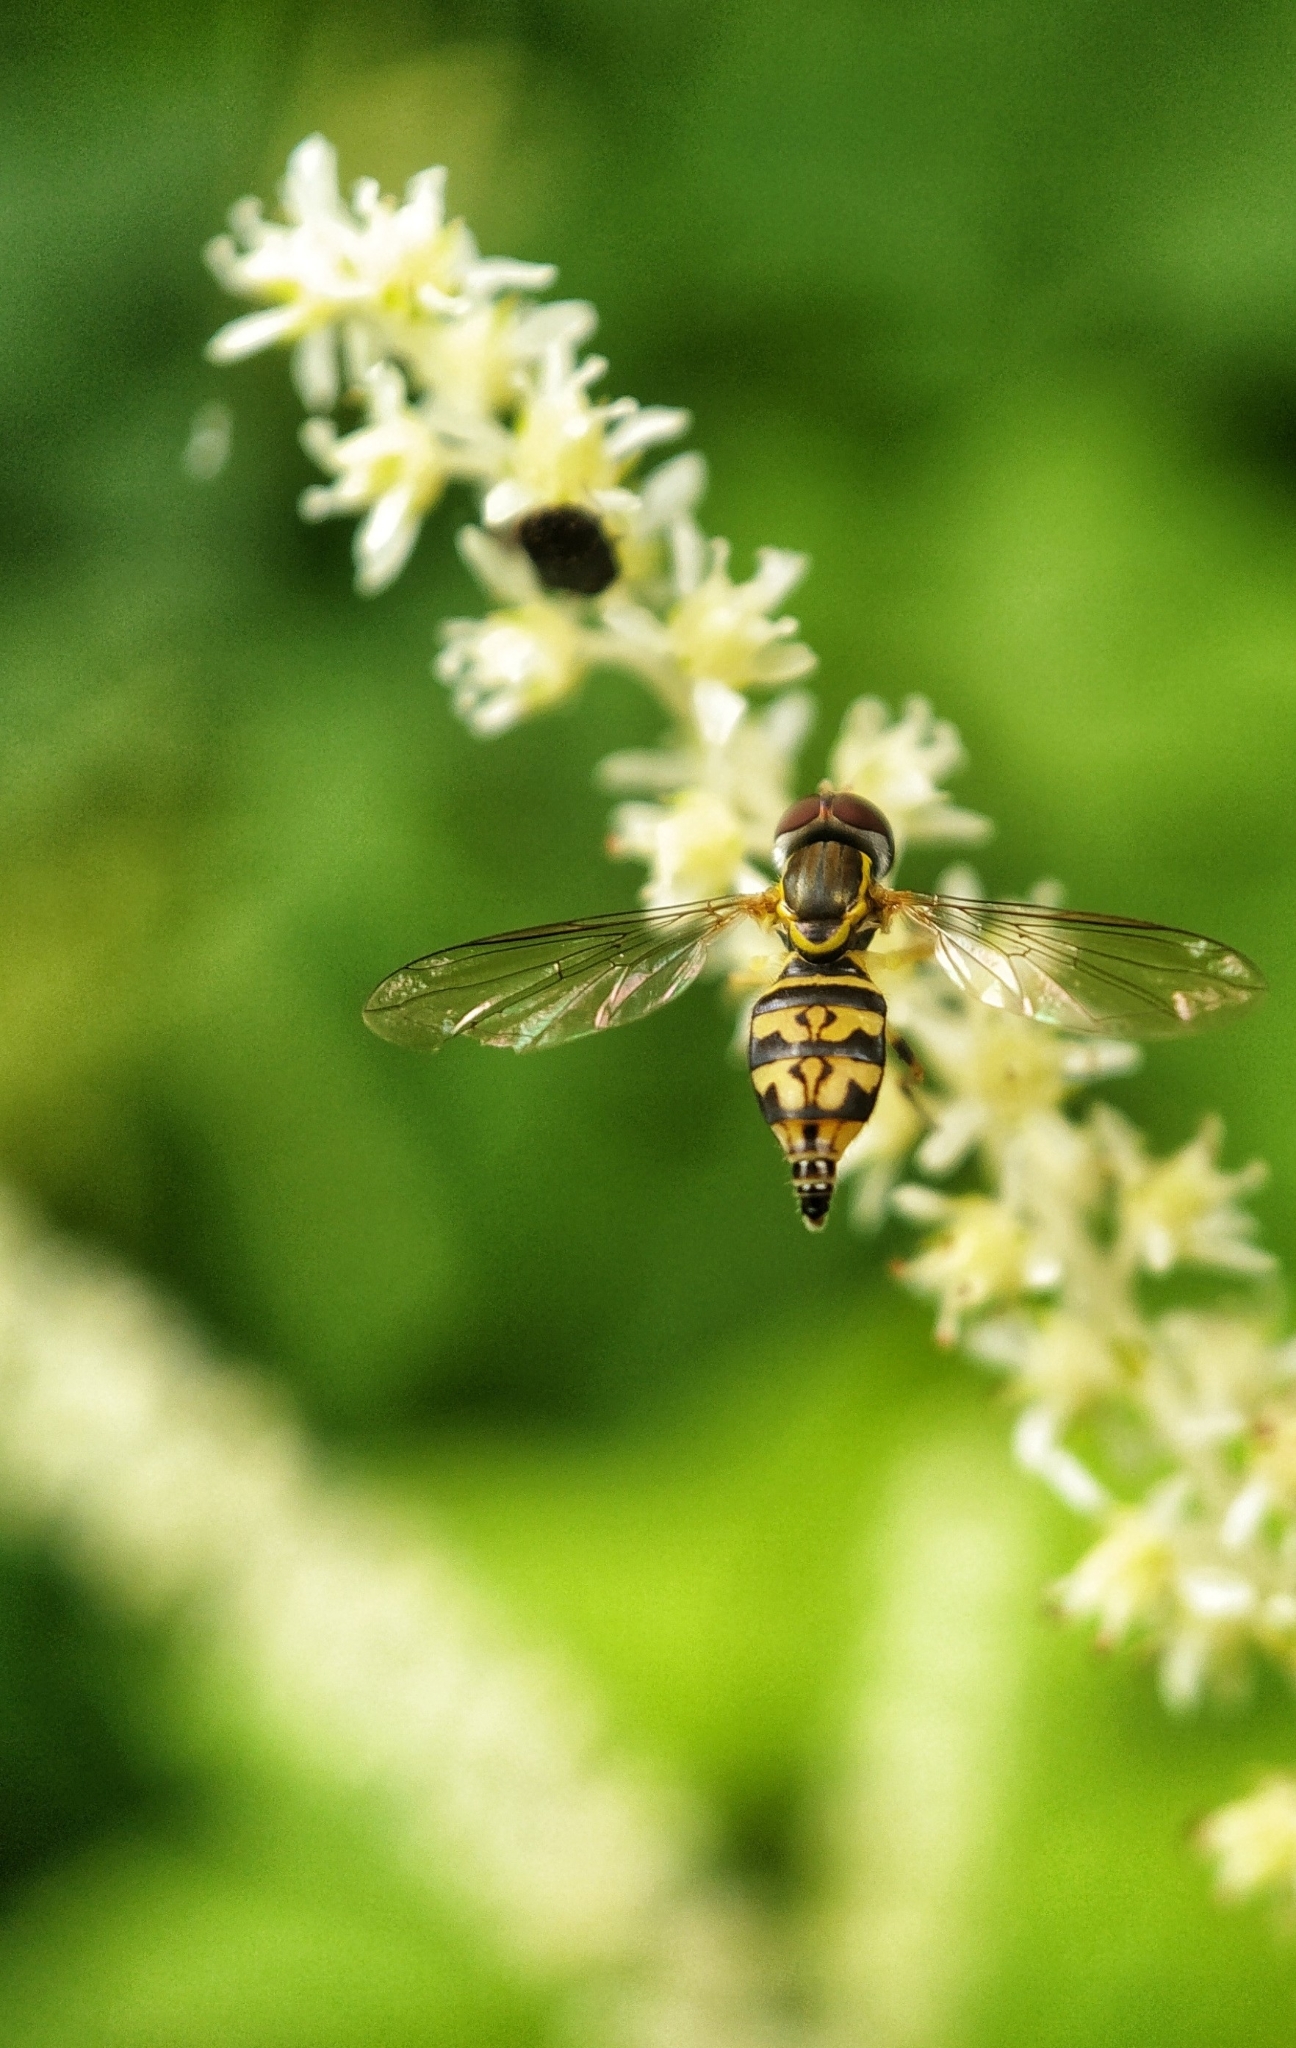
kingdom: Animalia
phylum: Arthropoda
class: Insecta
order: Diptera
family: Syrphidae
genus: Toxomerus
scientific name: Toxomerus geminatus
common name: Eastern calligrapher
